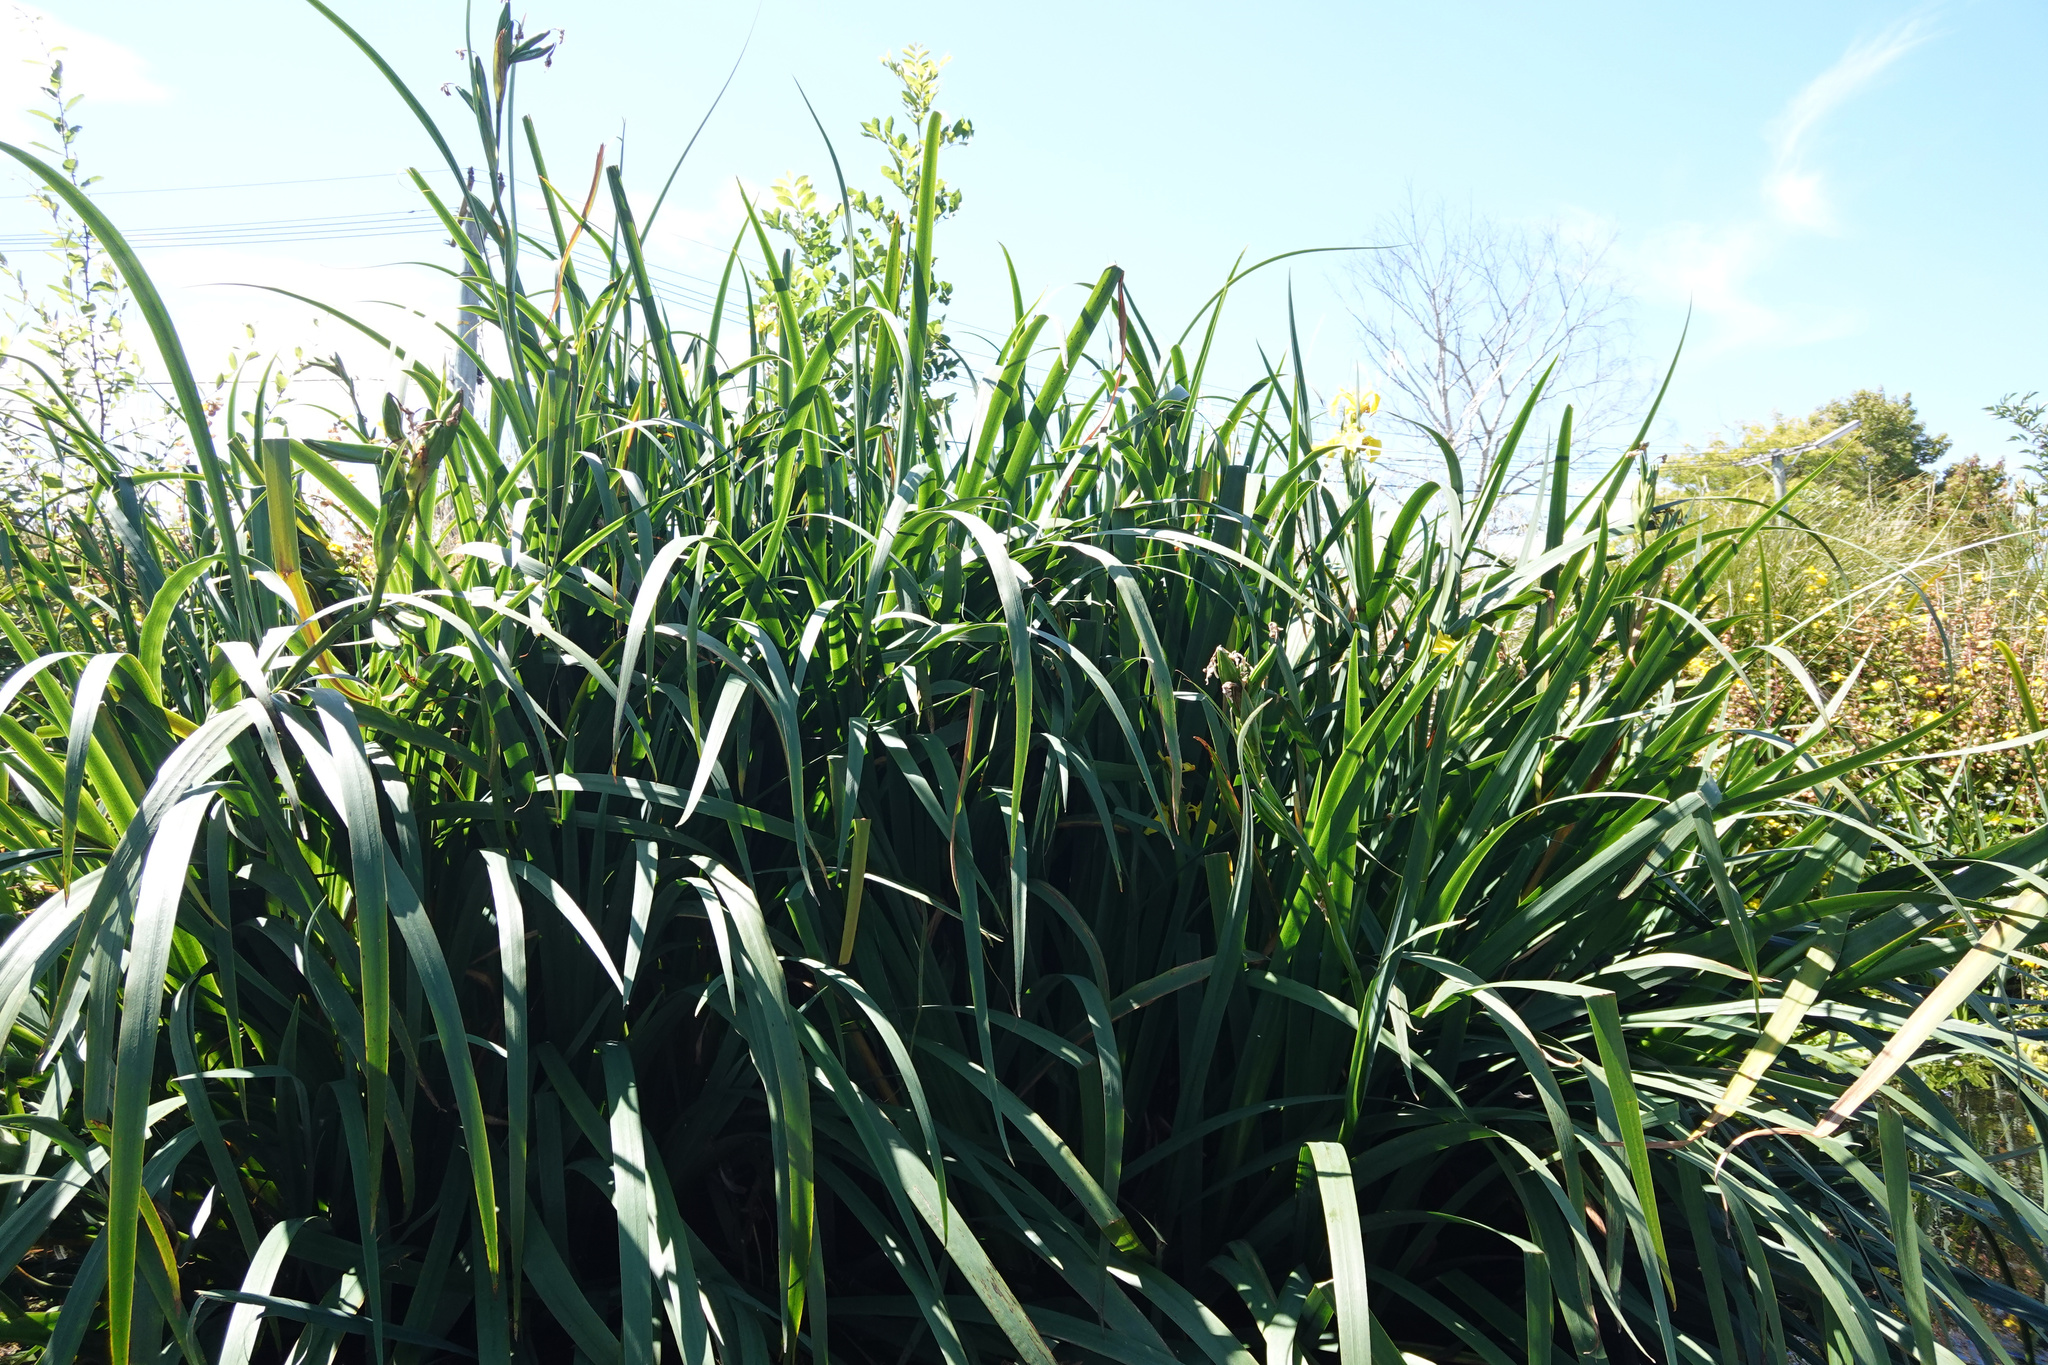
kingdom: Plantae
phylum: Tracheophyta
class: Liliopsida
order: Asparagales
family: Iridaceae
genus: Iris
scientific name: Iris pseudacorus
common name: Yellow flag
